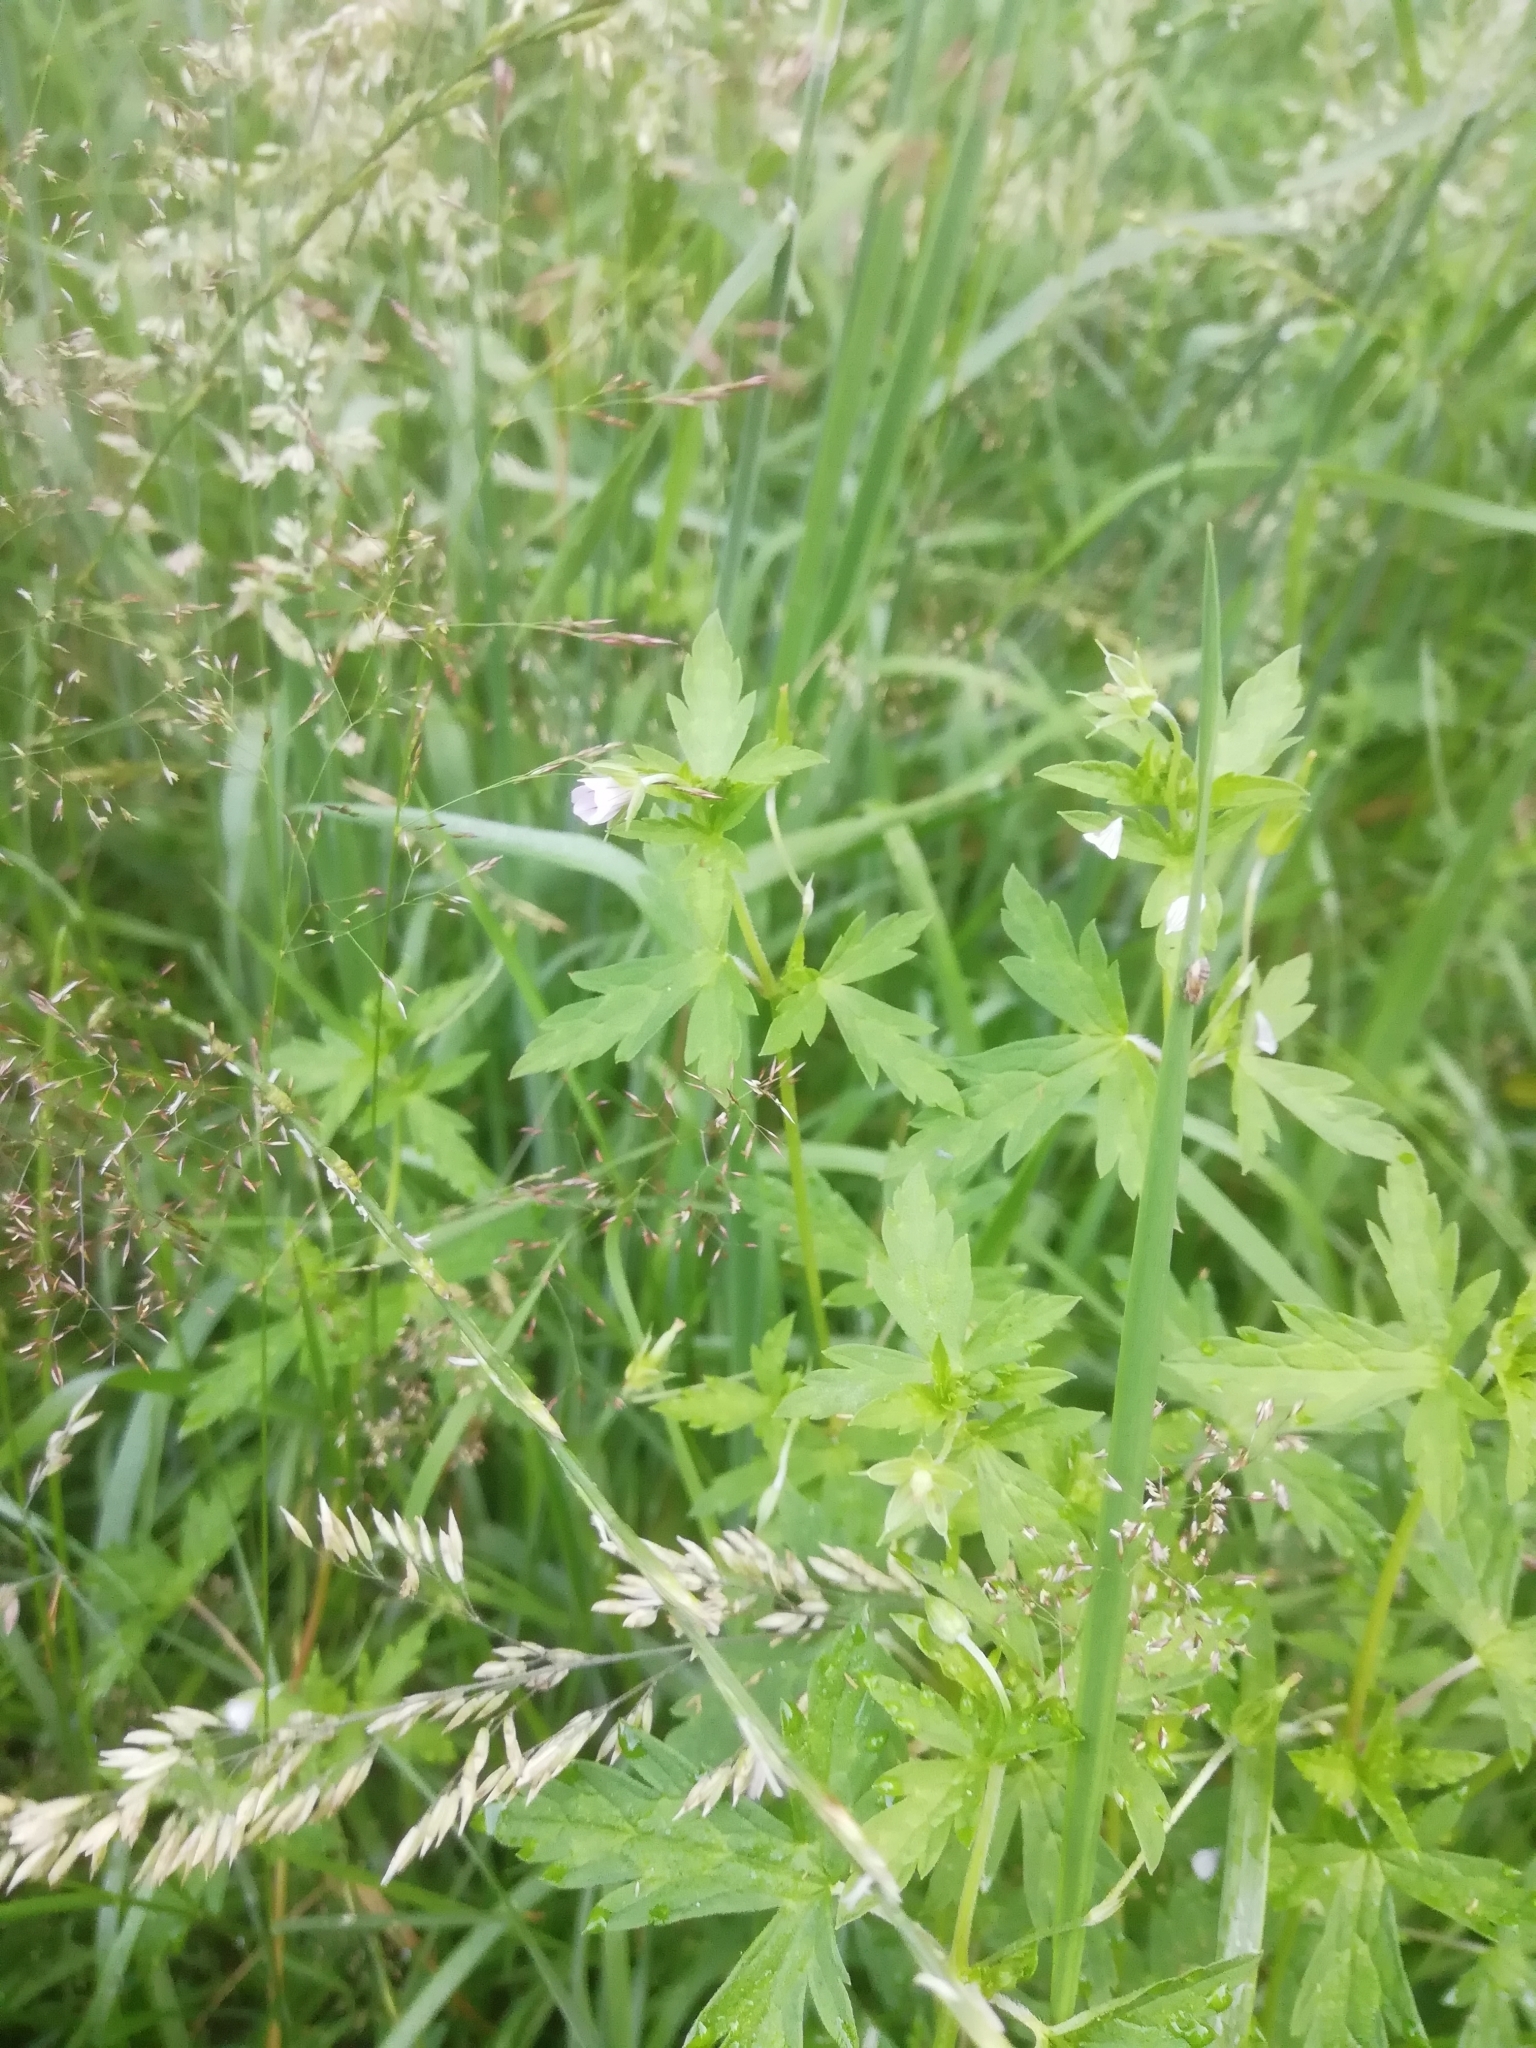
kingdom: Plantae
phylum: Tracheophyta
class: Magnoliopsida
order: Geraniales
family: Geraniaceae
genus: Geranium
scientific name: Geranium sibiricum
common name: Siberian crane's-bill
